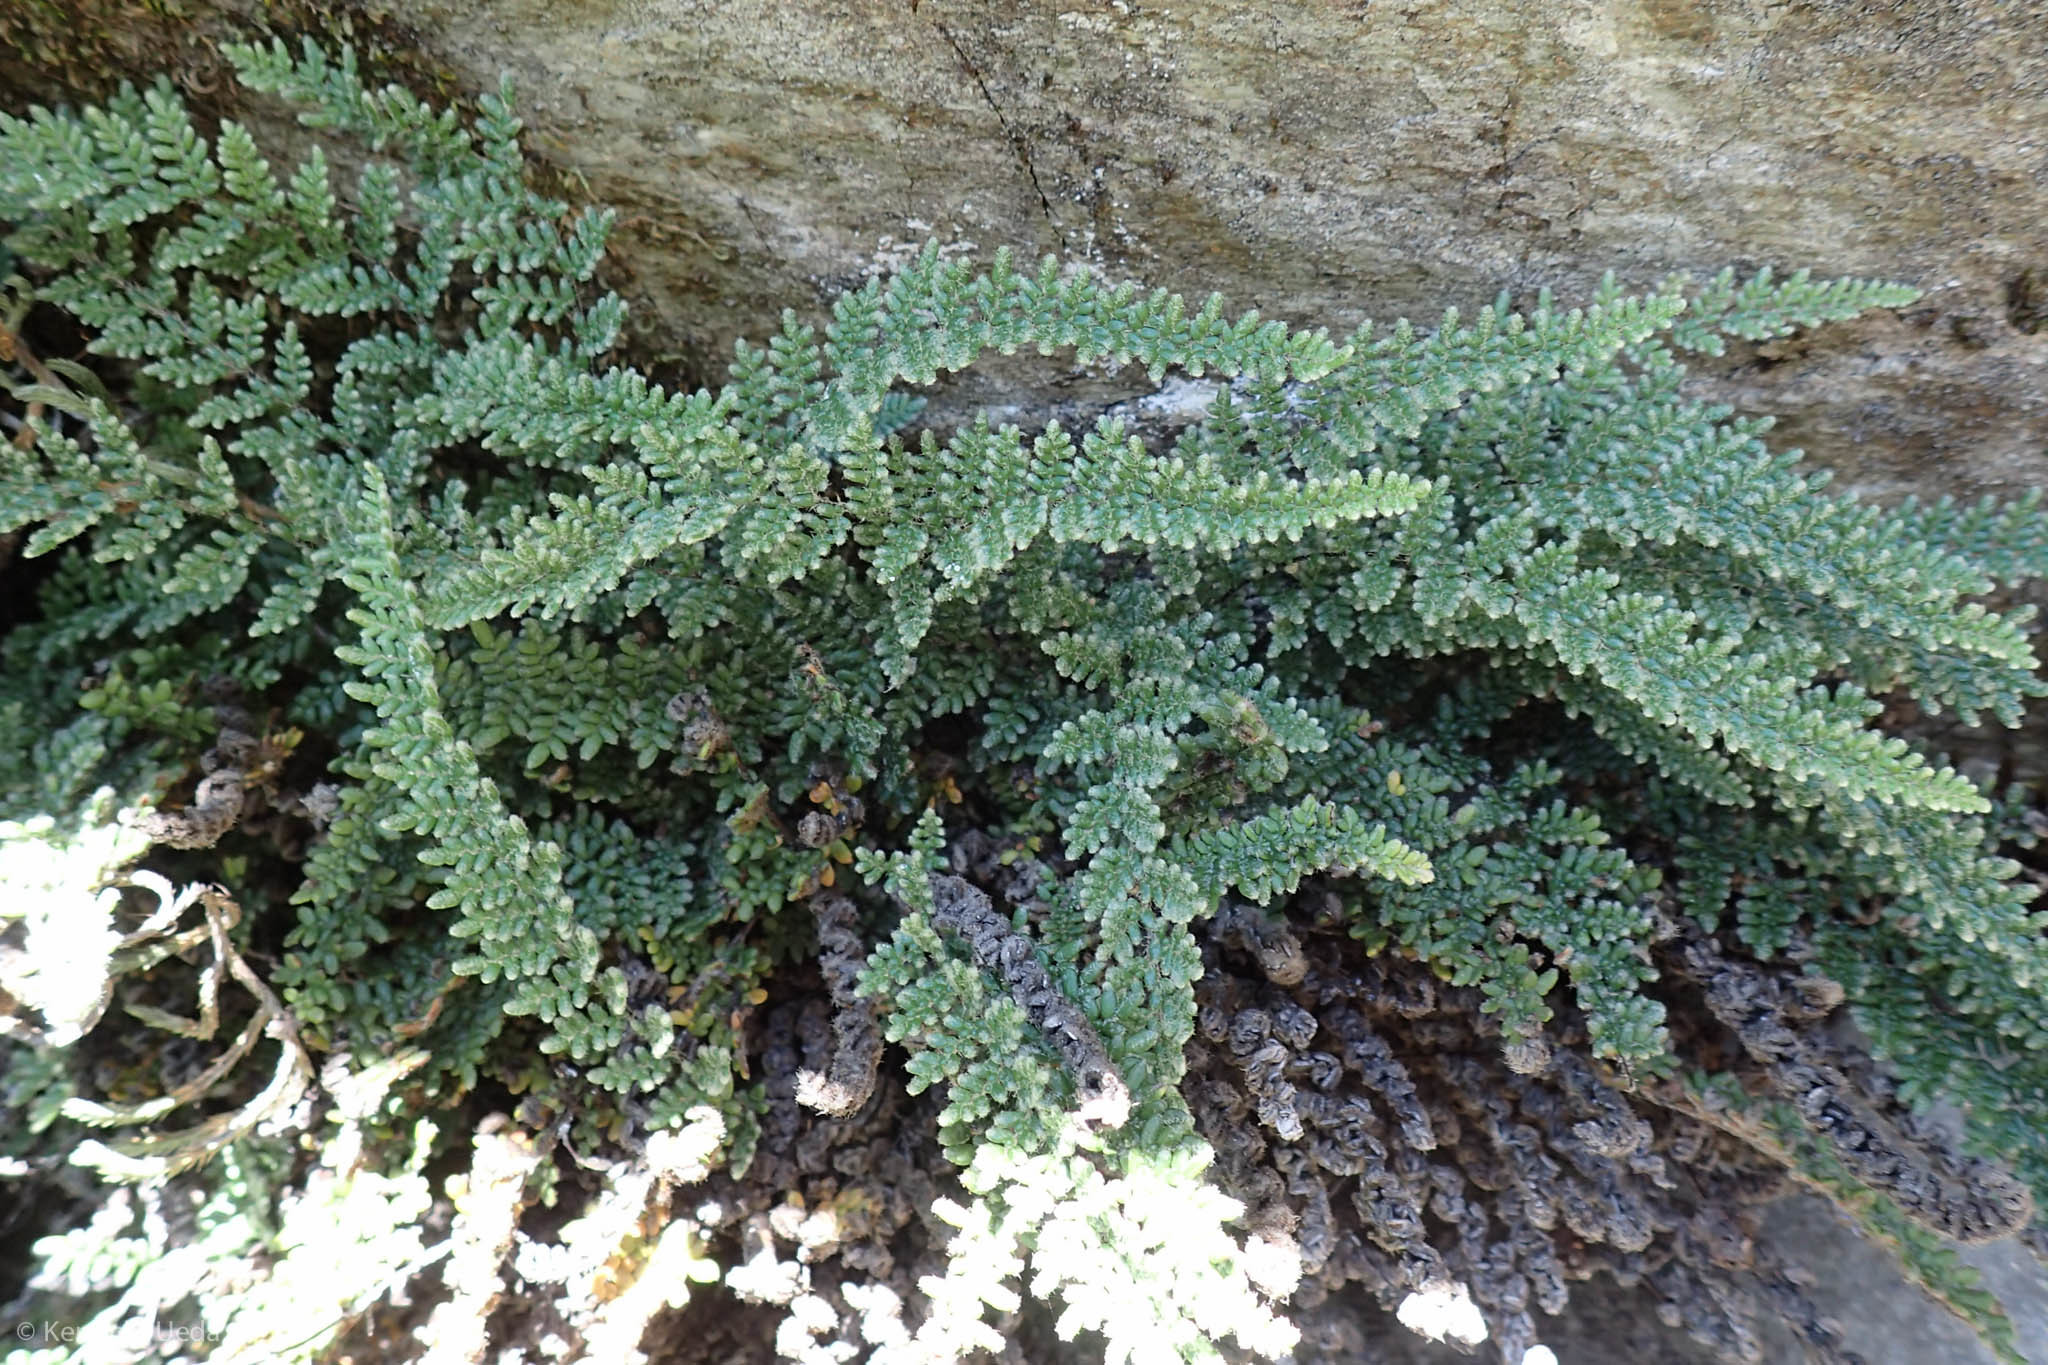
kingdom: Plantae
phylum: Tracheophyta
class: Polypodiopsida
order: Polypodiales
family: Pteridaceae
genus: Myriopteris
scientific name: Myriopteris gracillima
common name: Lace fern
